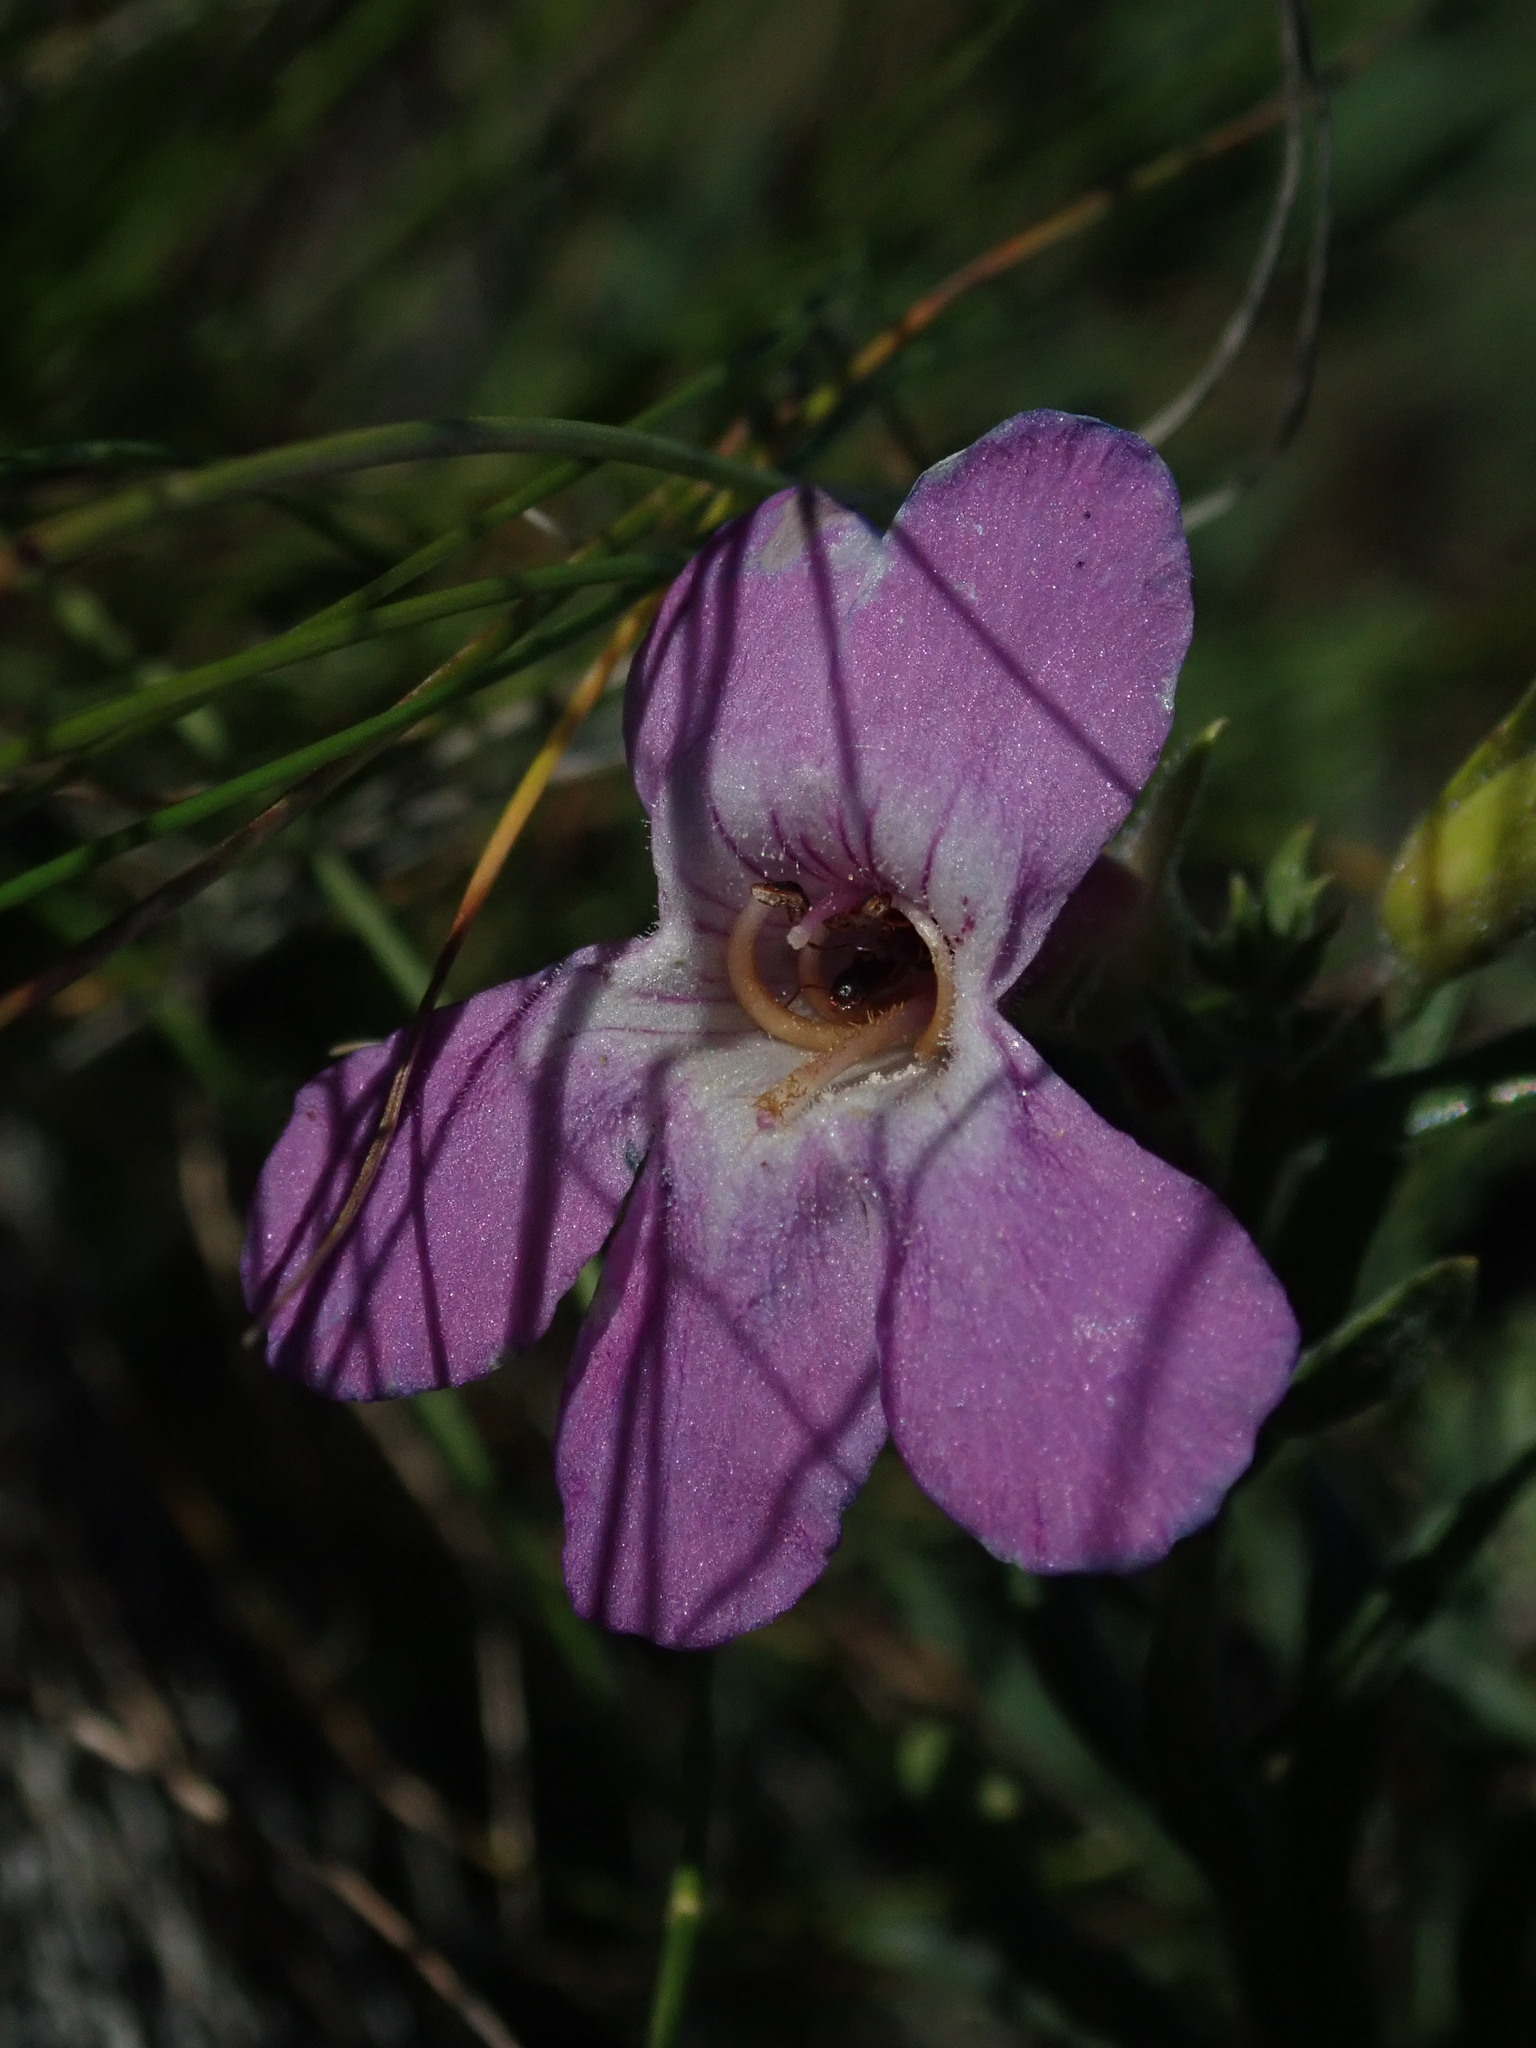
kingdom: Plantae
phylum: Tracheophyta
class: Magnoliopsida
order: Lamiales
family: Plantaginaceae
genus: Penstemon
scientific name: Penstemon gairdneri
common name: Gairdner's penstemon
